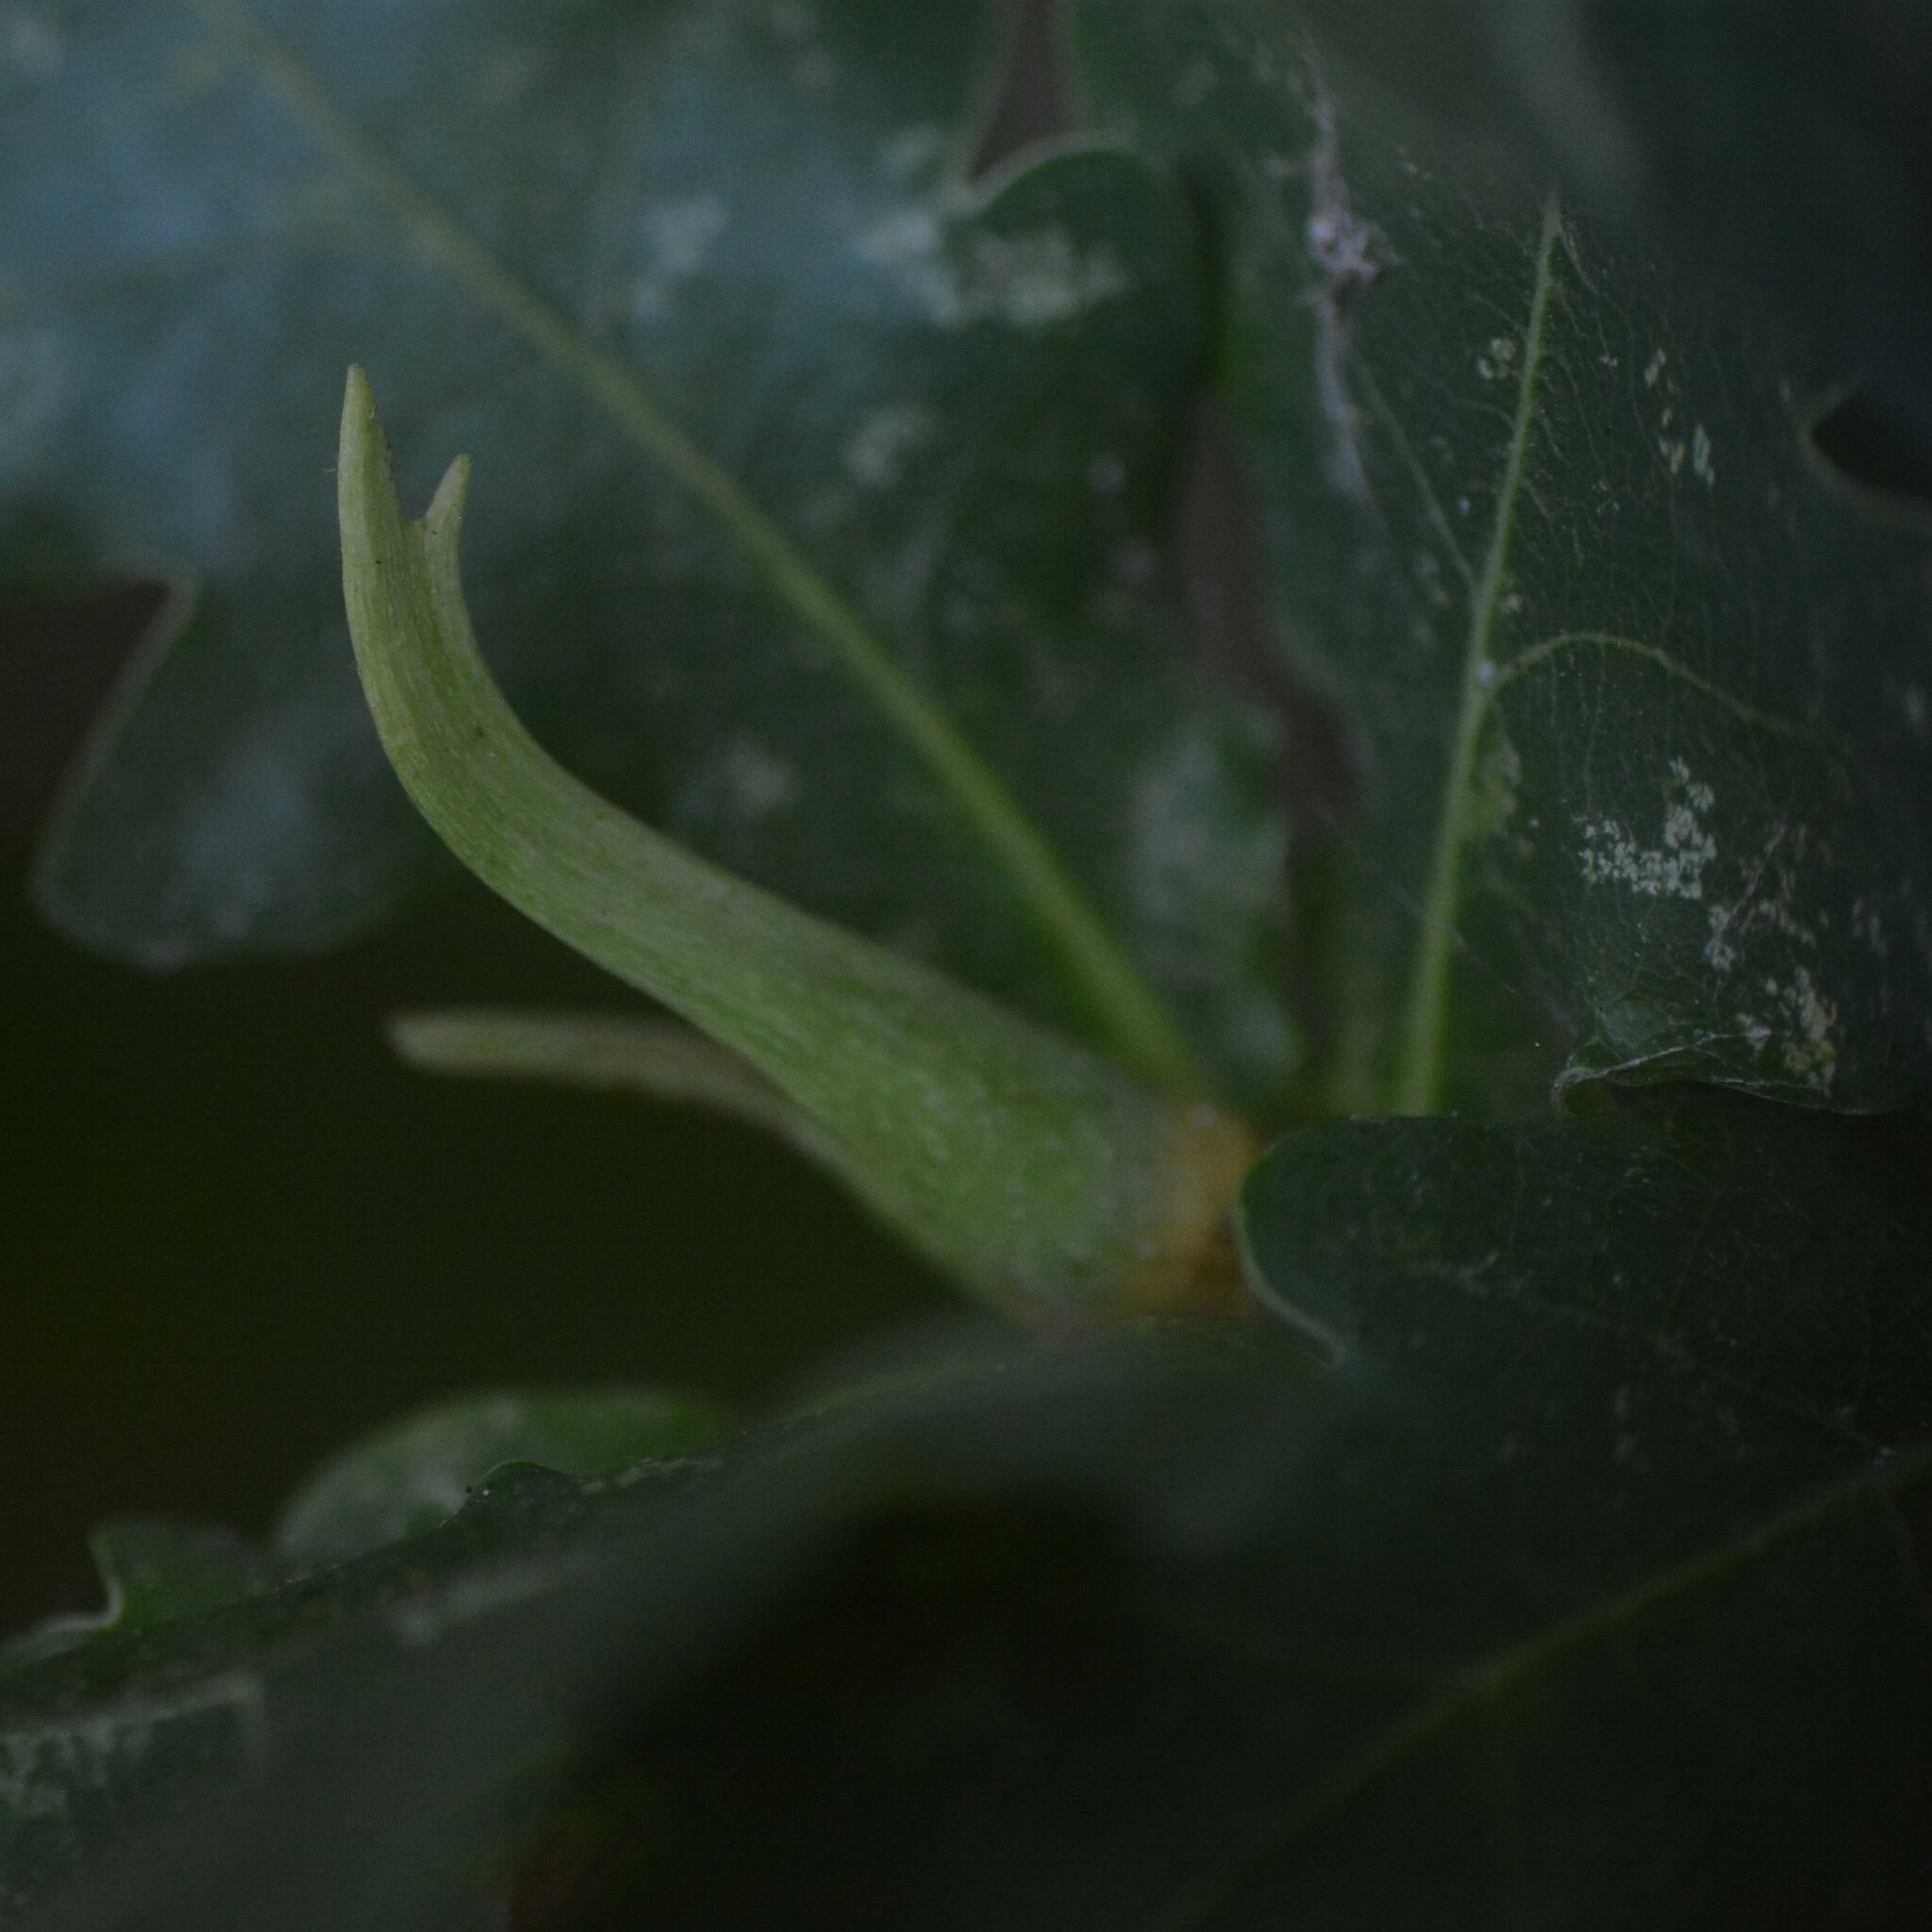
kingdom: Animalia
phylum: Arthropoda
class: Insecta
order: Hymenoptera
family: Cynipidae
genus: Andricus
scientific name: Andricus aries
